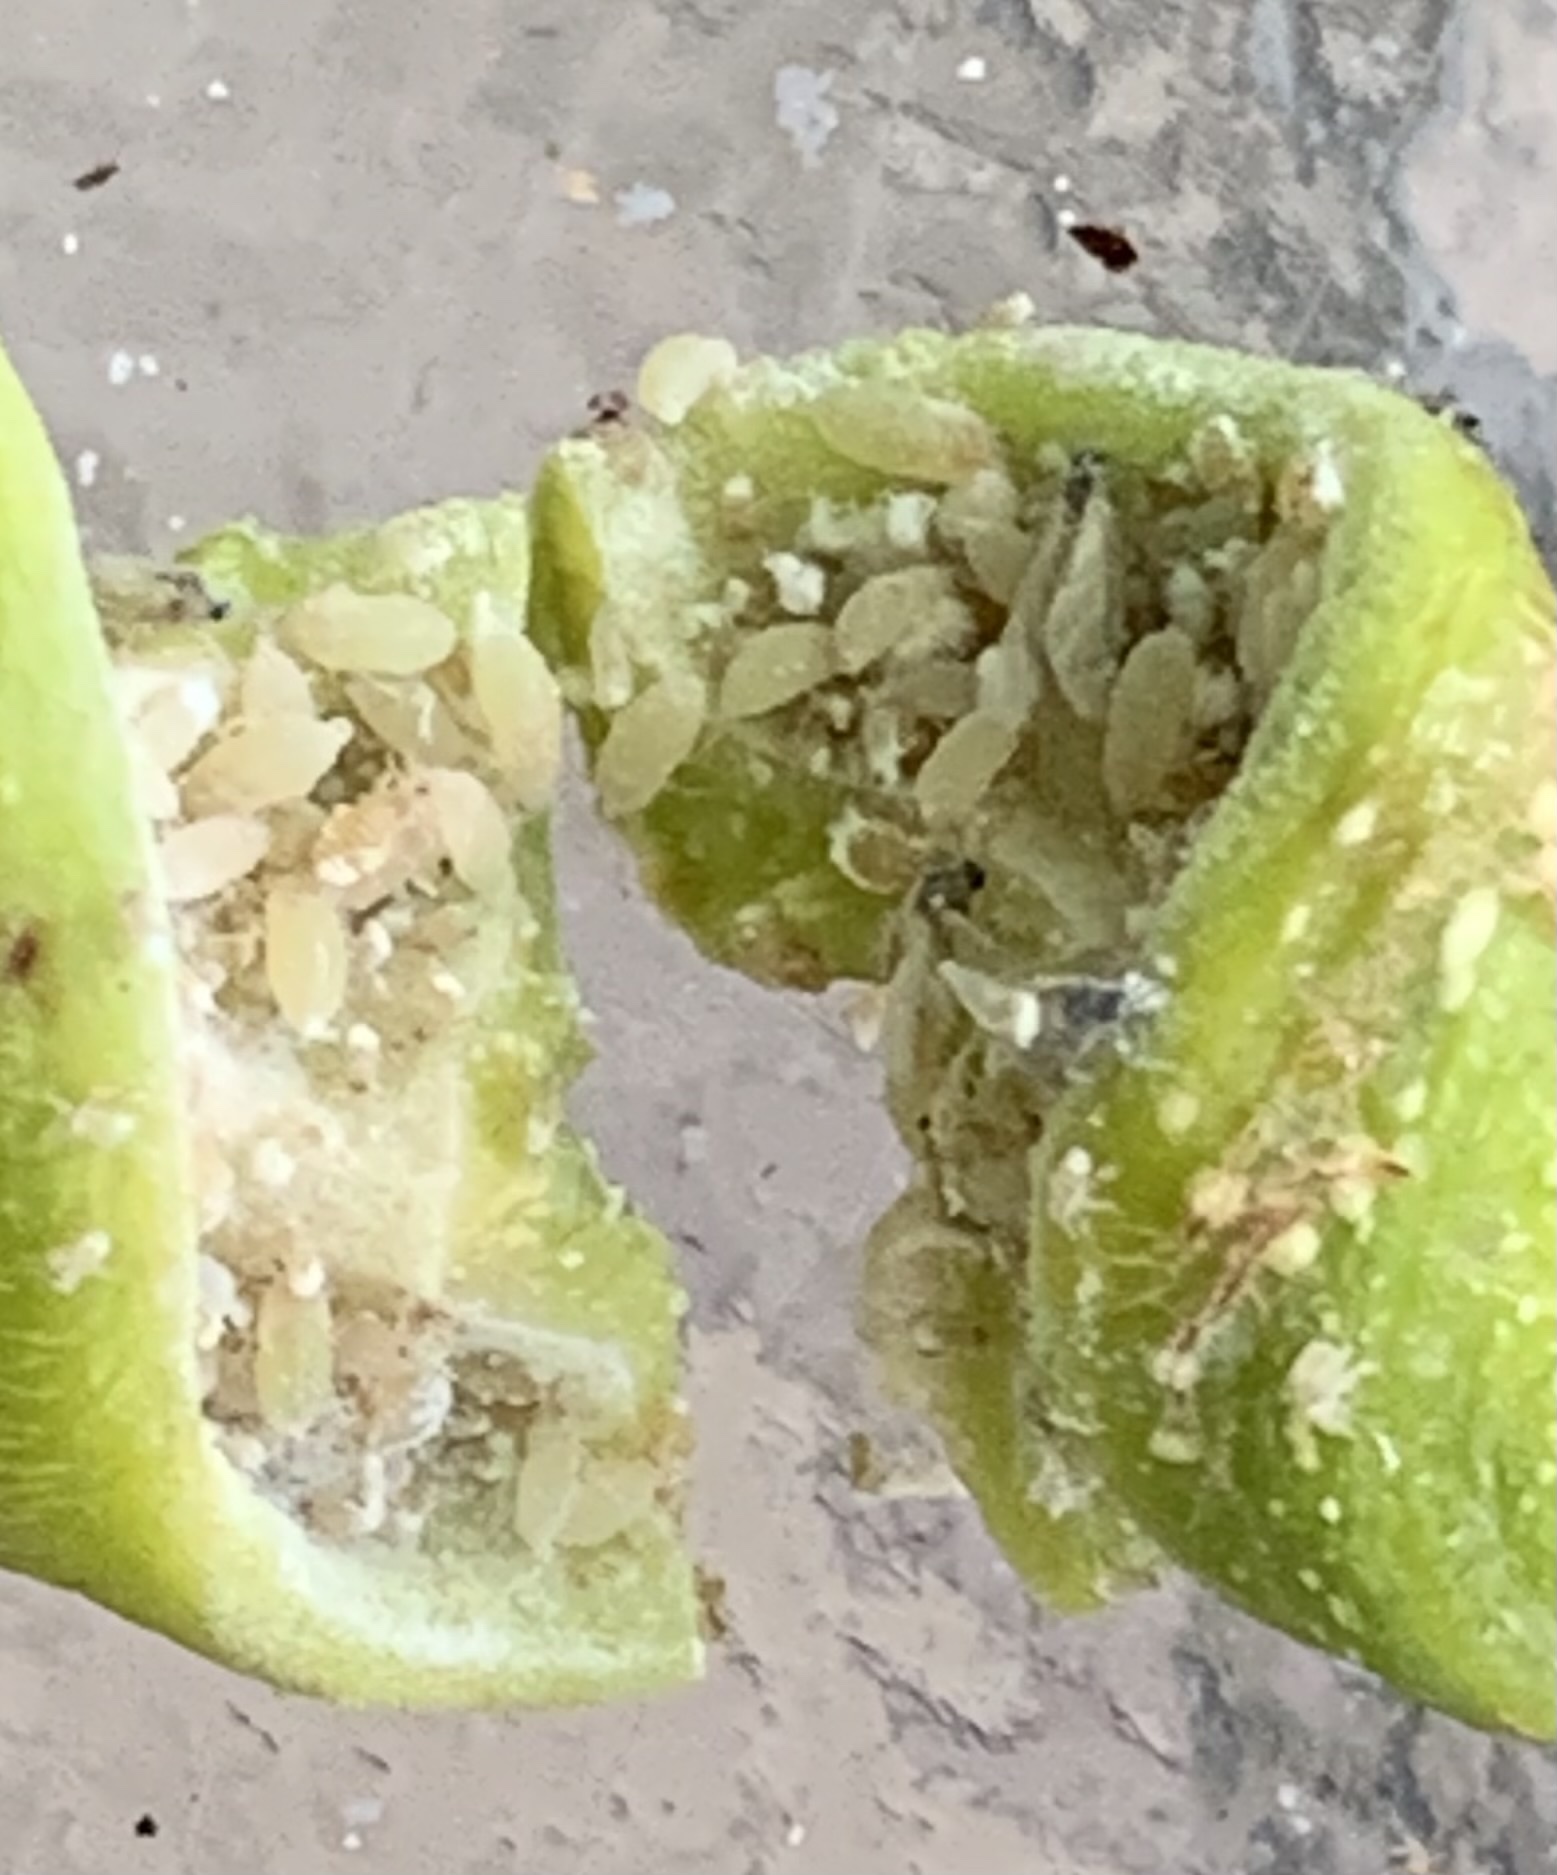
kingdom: Animalia
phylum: Arthropoda
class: Insecta
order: Hemiptera
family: Aphididae
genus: Pemphigus
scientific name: Pemphigus spyrothecae
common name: Aphid
